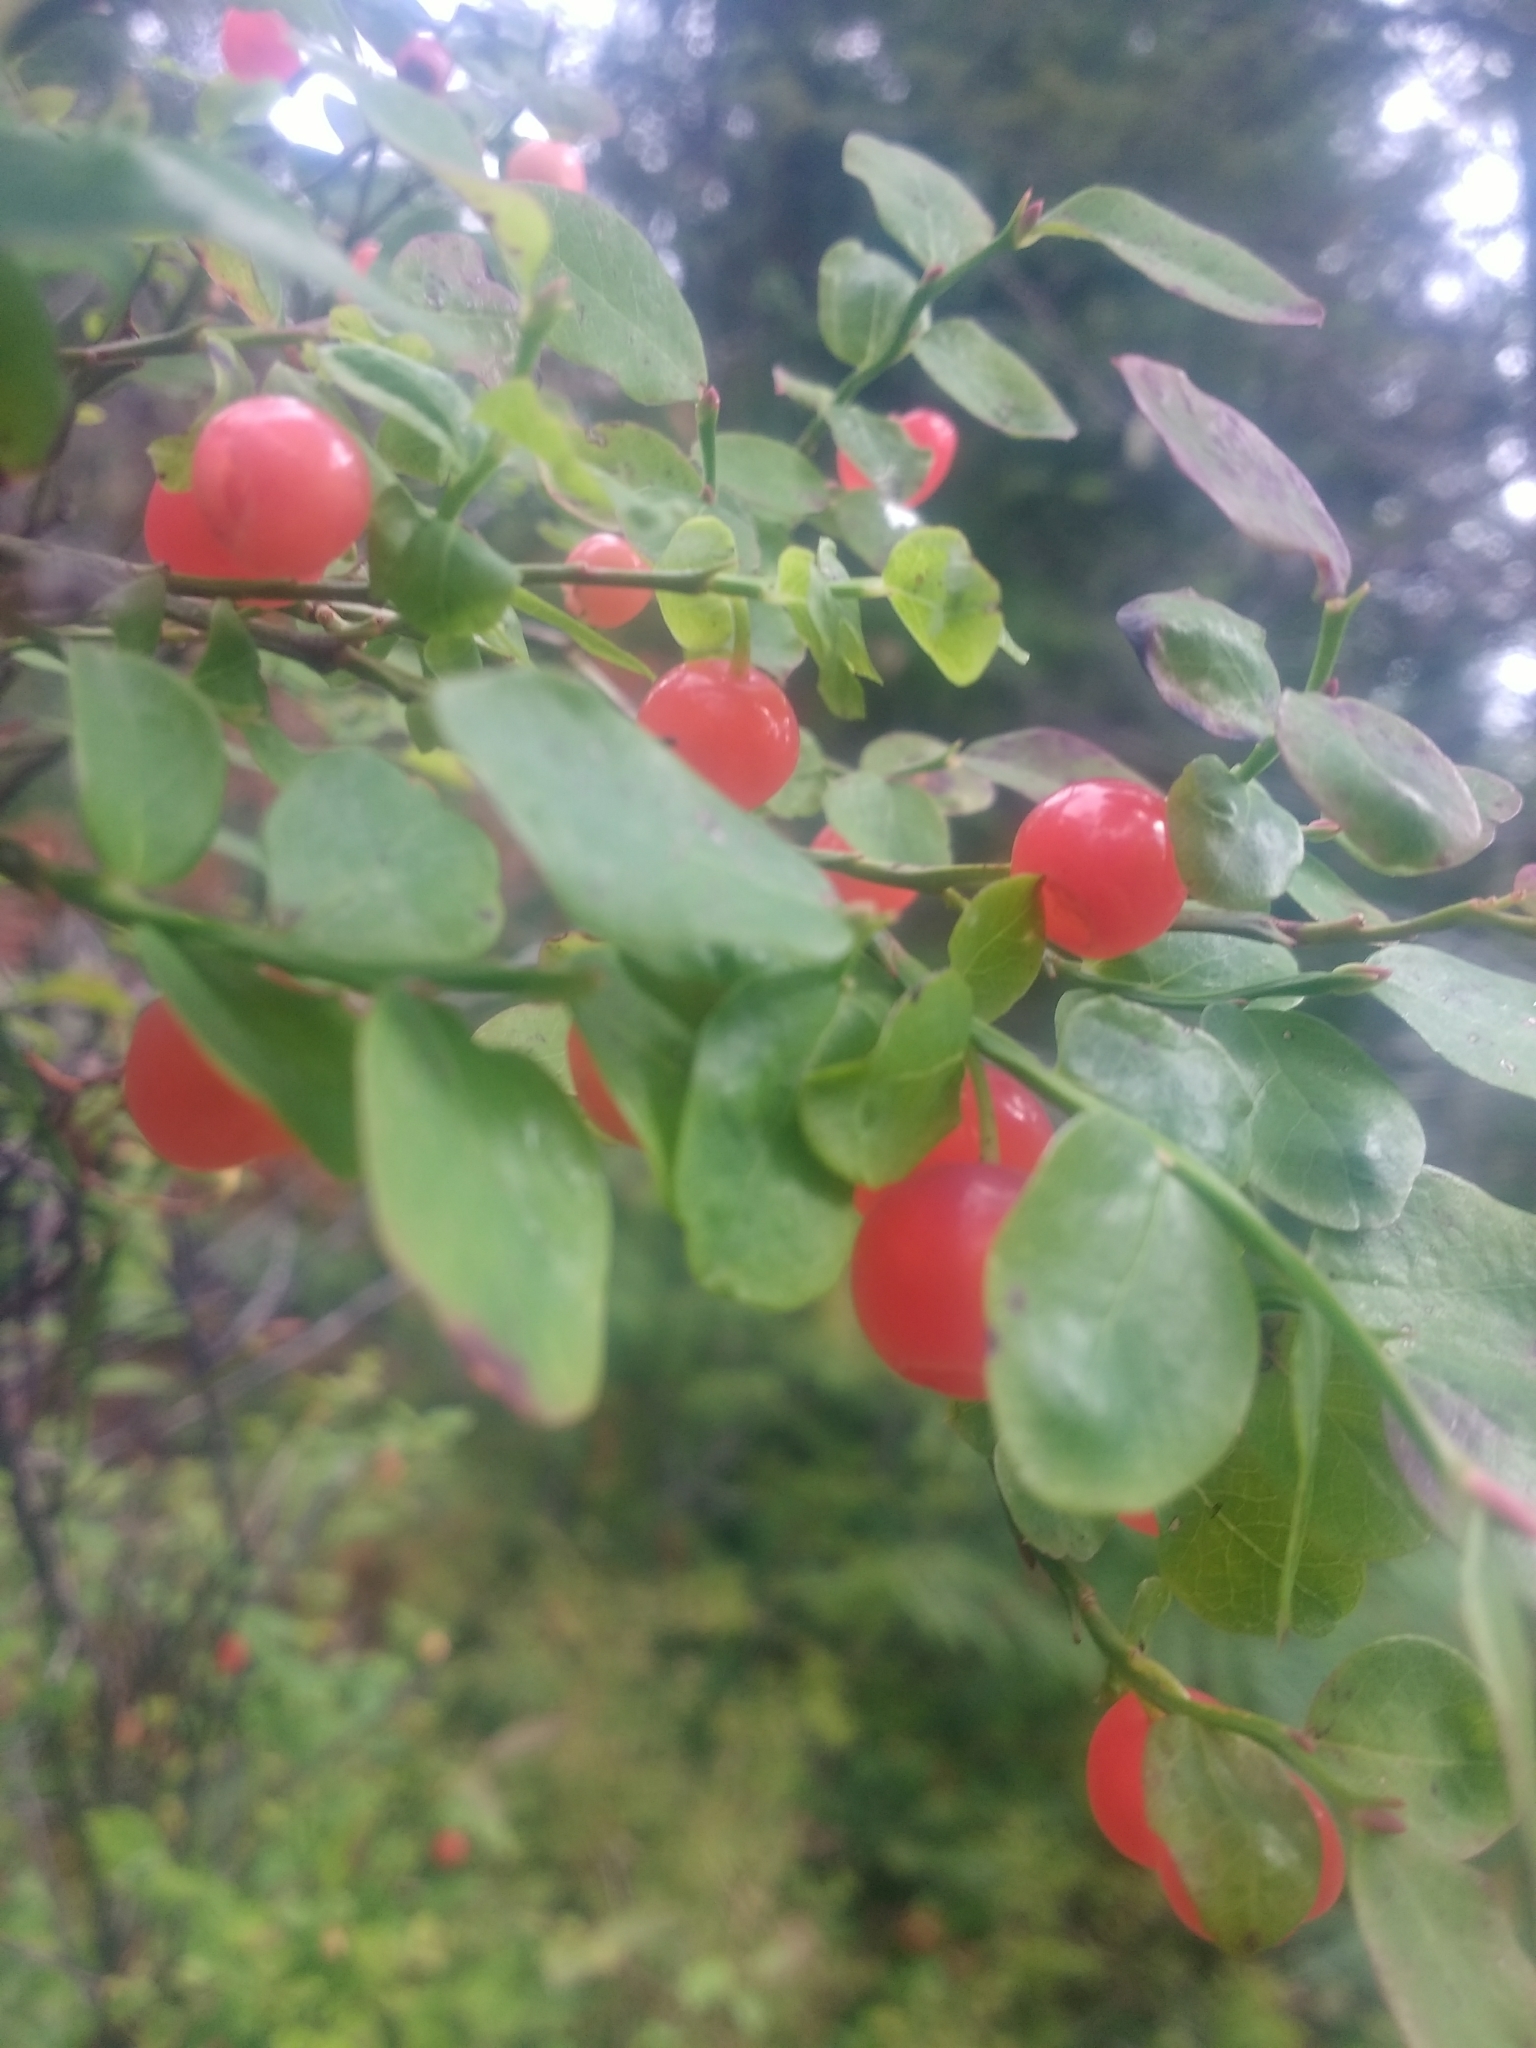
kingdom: Plantae
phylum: Tracheophyta
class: Magnoliopsida
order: Ericales
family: Ericaceae
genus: Vaccinium
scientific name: Vaccinium parvifolium
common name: Red-huckleberry
